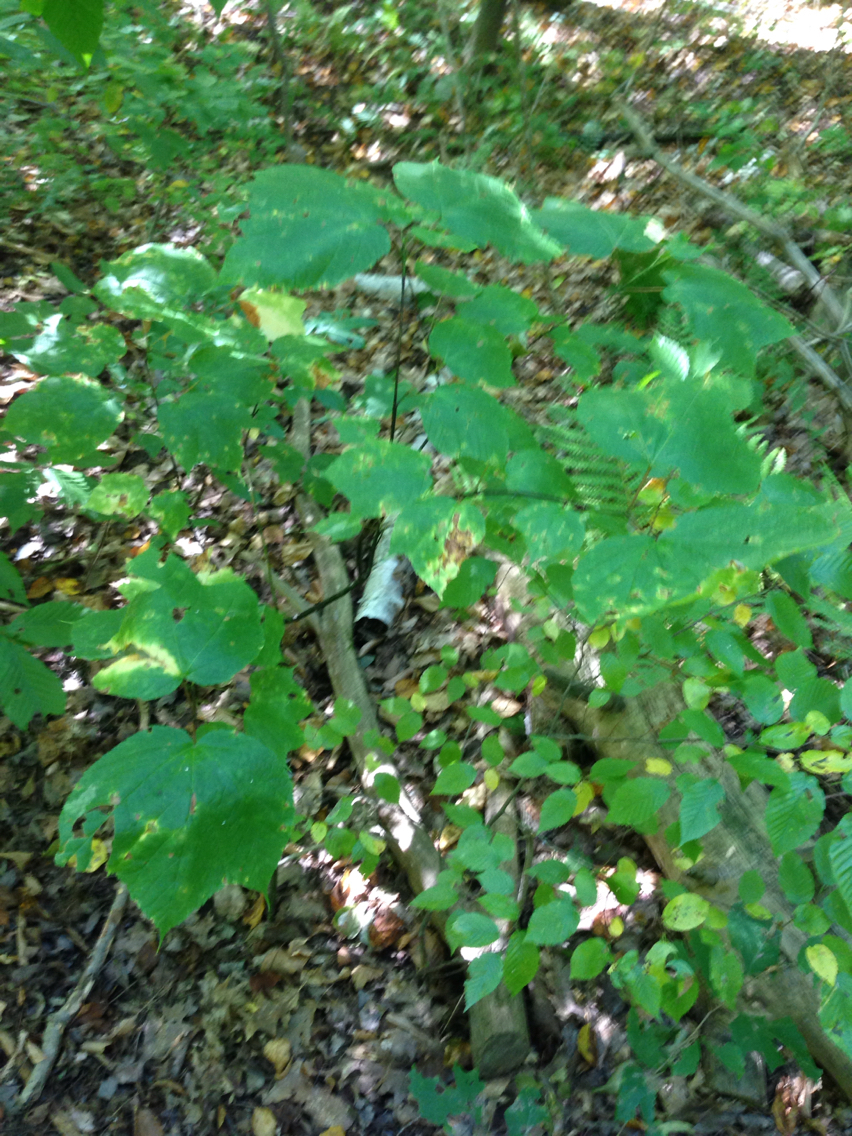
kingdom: Plantae
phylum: Tracheophyta
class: Magnoliopsida
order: Sapindales
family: Sapindaceae
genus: Acer
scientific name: Acer pensylvanicum
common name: Moosewood
